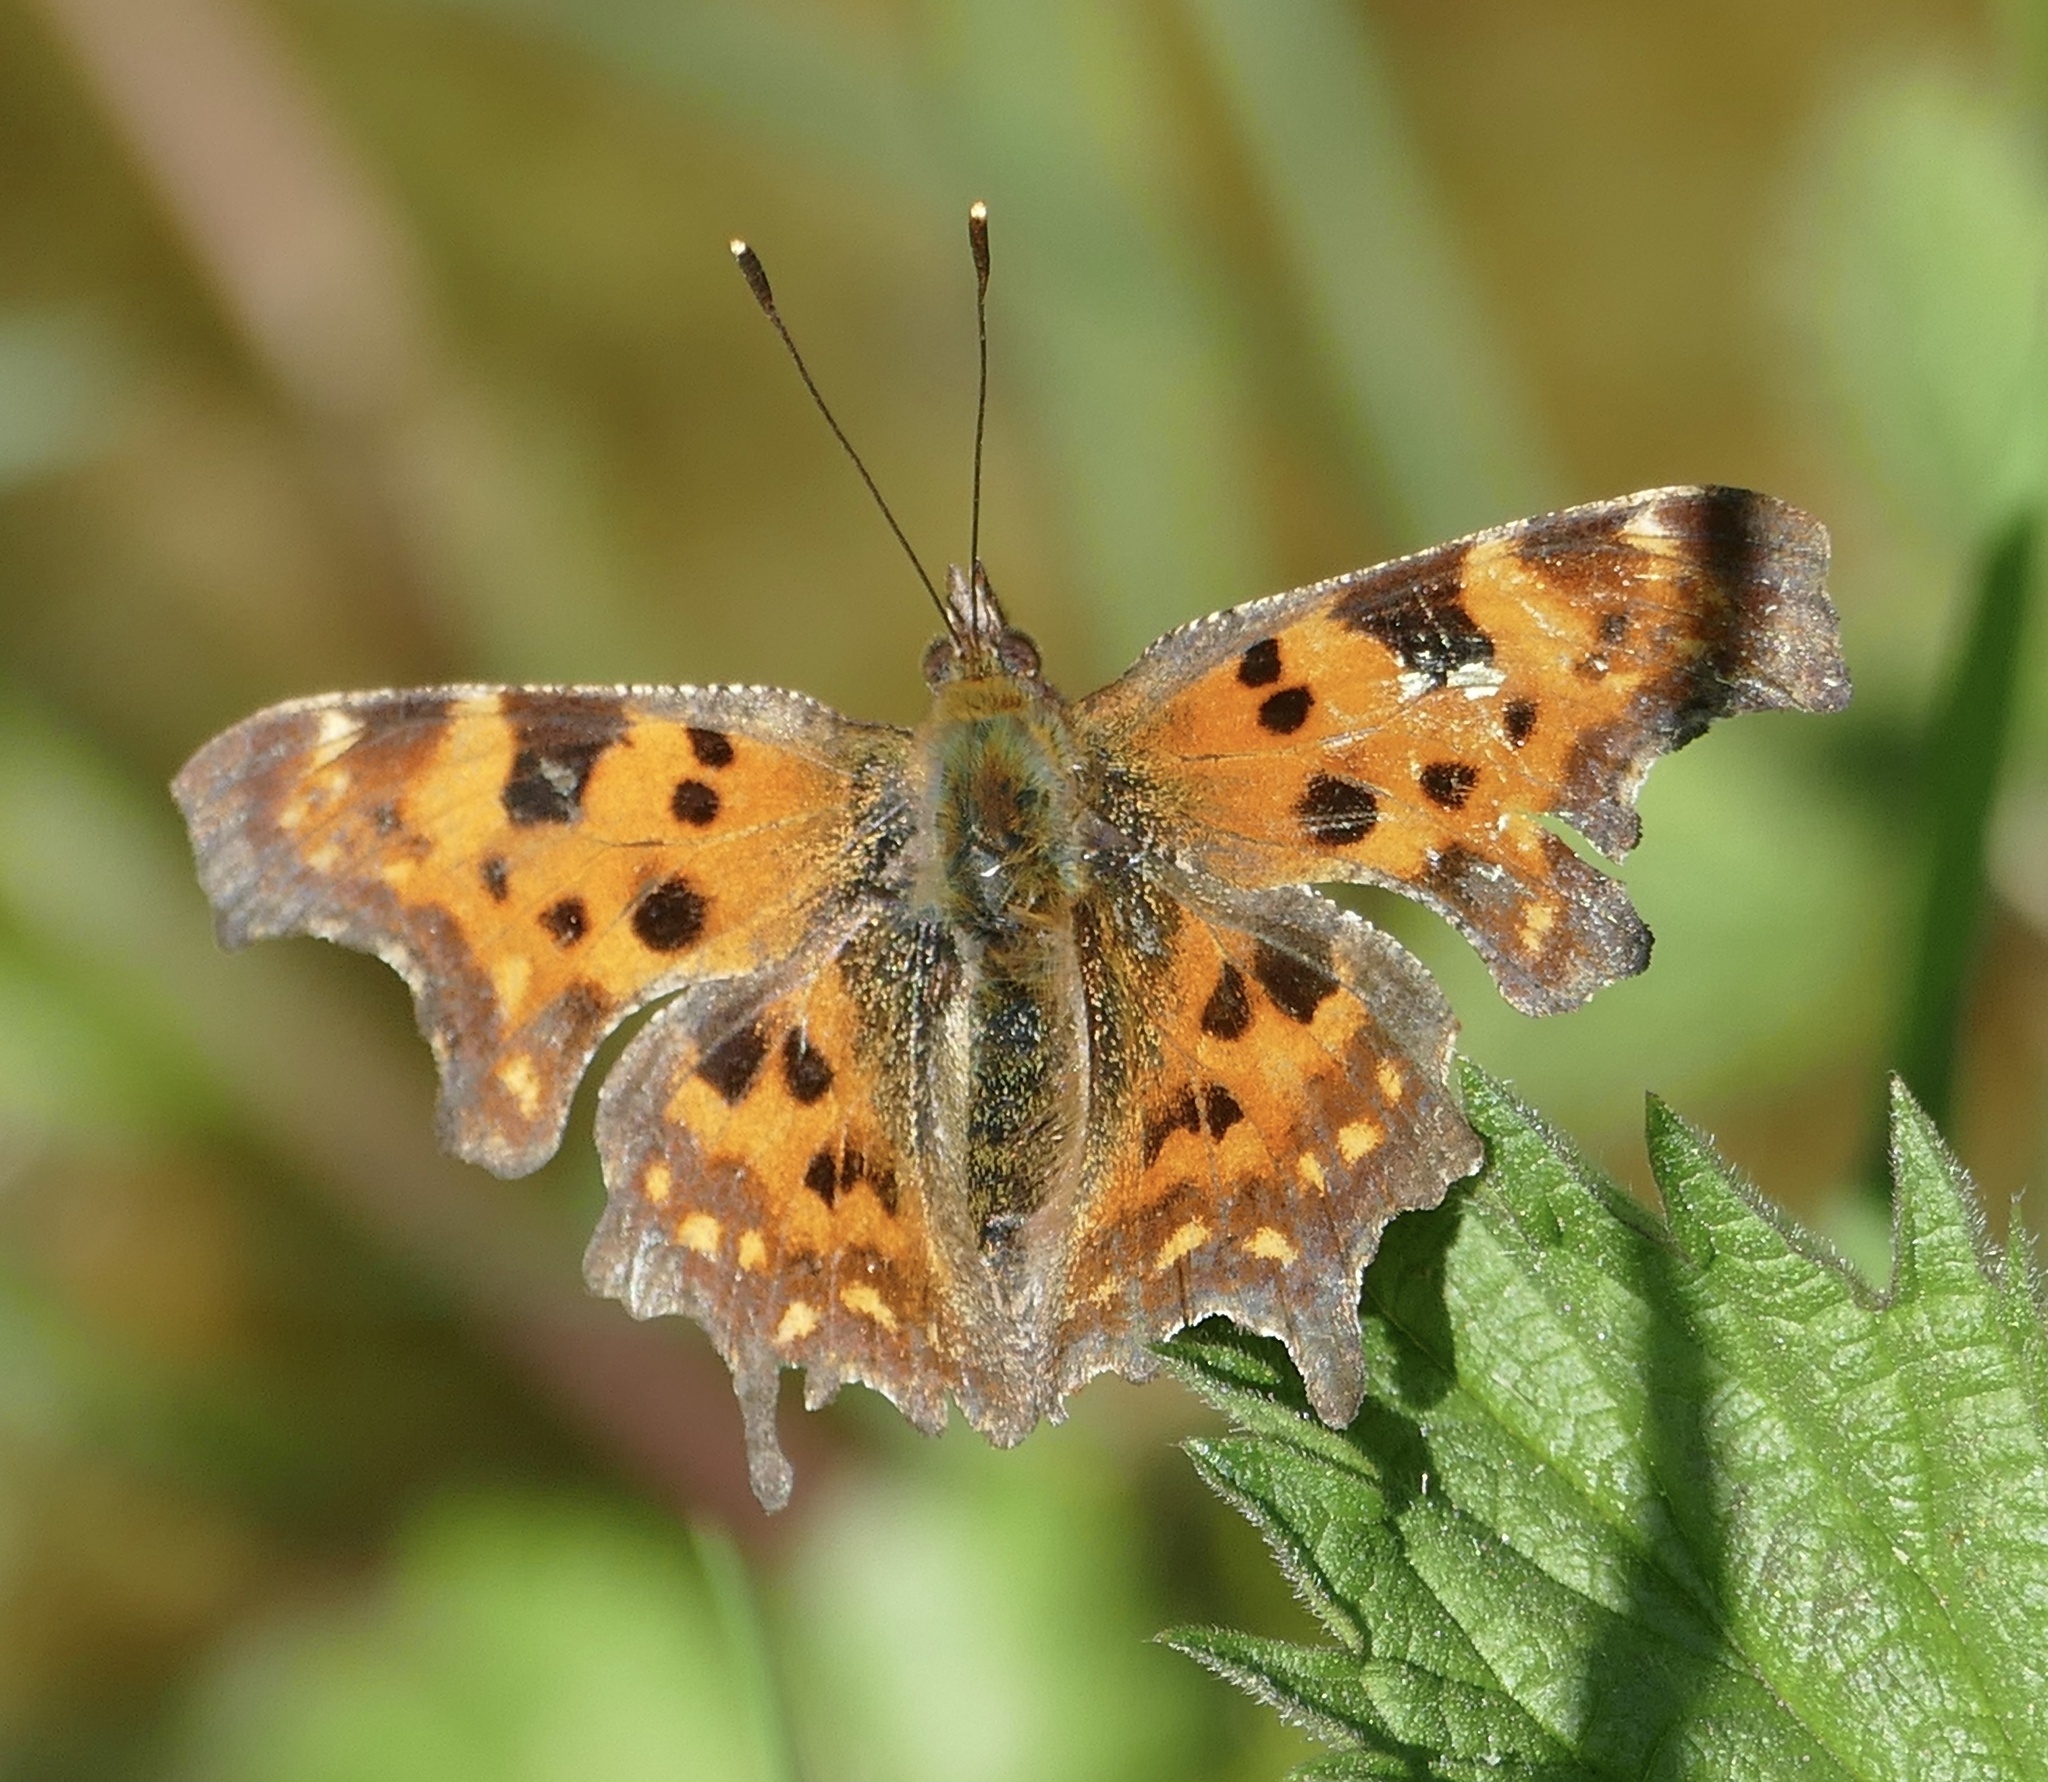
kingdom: Animalia
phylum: Arthropoda
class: Insecta
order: Lepidoptera
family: Nymphalidae
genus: Polygonia
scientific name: Polygonia c-album
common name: Comma
